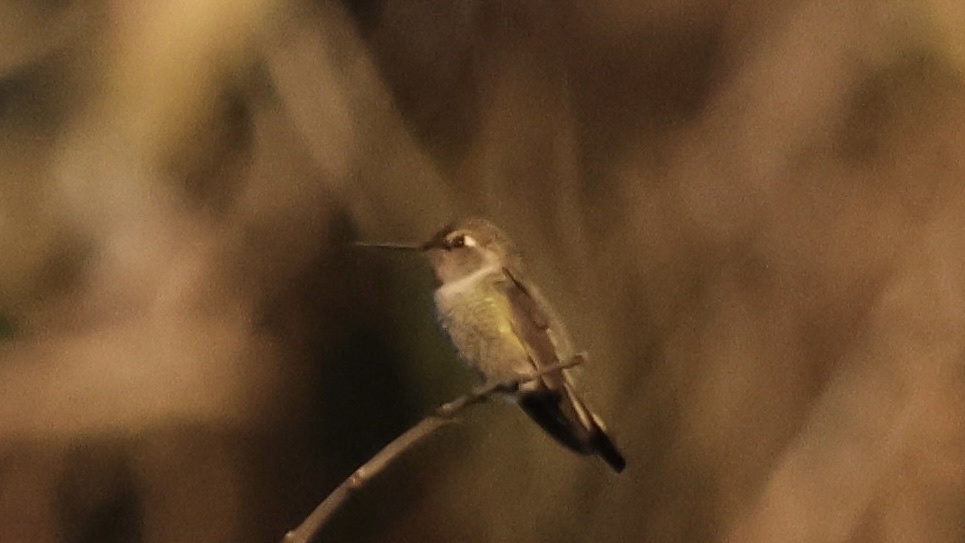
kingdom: Animalia
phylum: Chordata
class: Aves
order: Apodiformes
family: Trochilidae
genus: Calypte
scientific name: Calypte anna
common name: Anna's hummingbird
